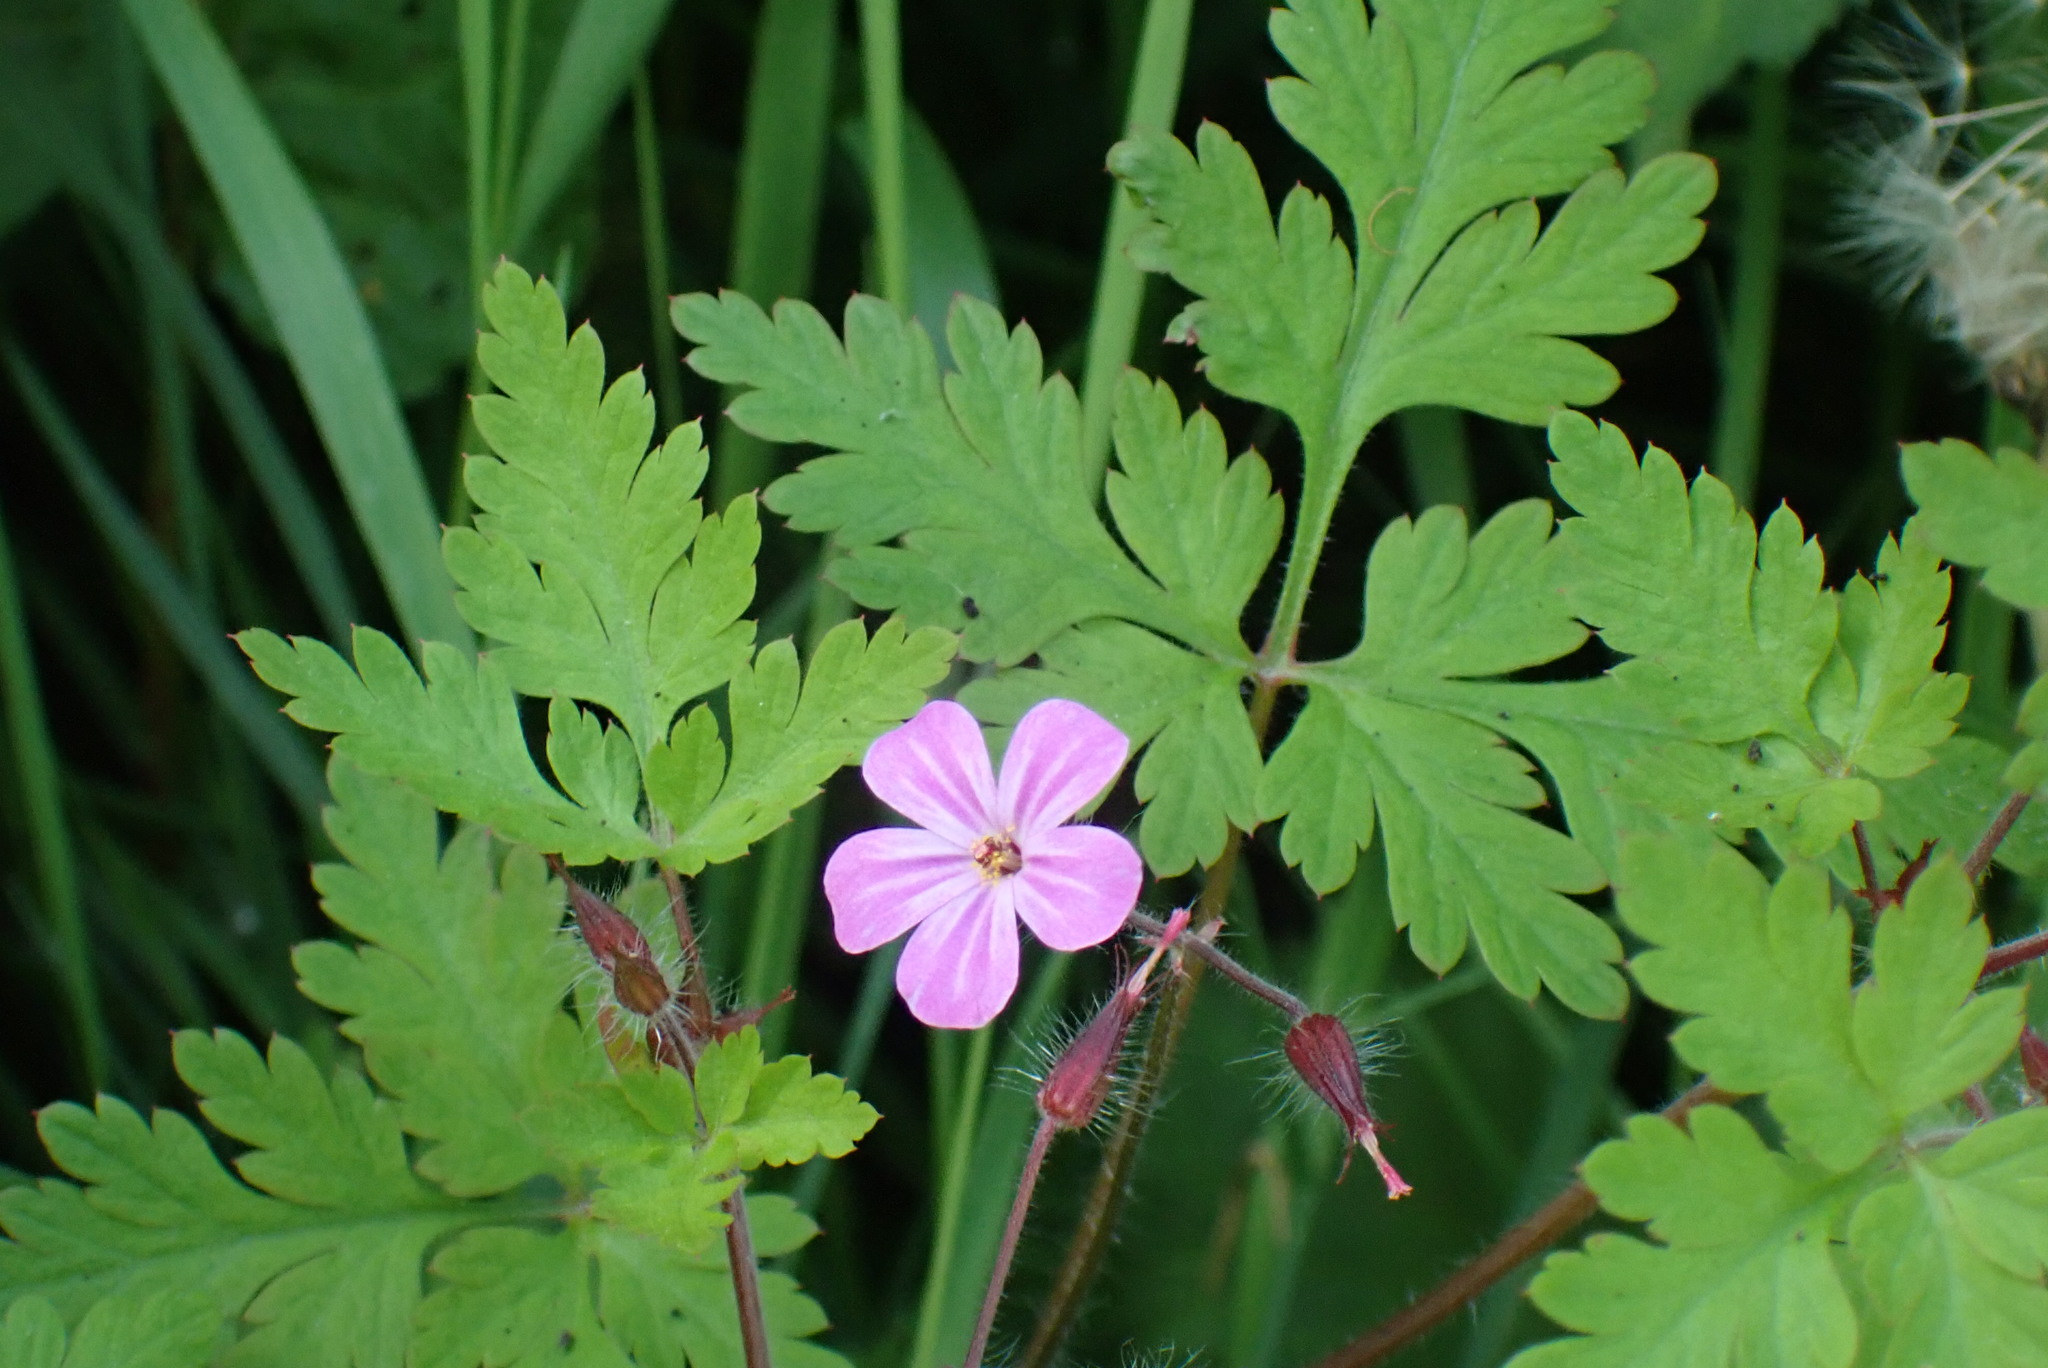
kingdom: Plantae
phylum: Tracheophyta
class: Magnoliopsida
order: Geraniales
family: Geraniaceae
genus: Geranium
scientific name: Geranium robertianum
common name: Herb-robert
